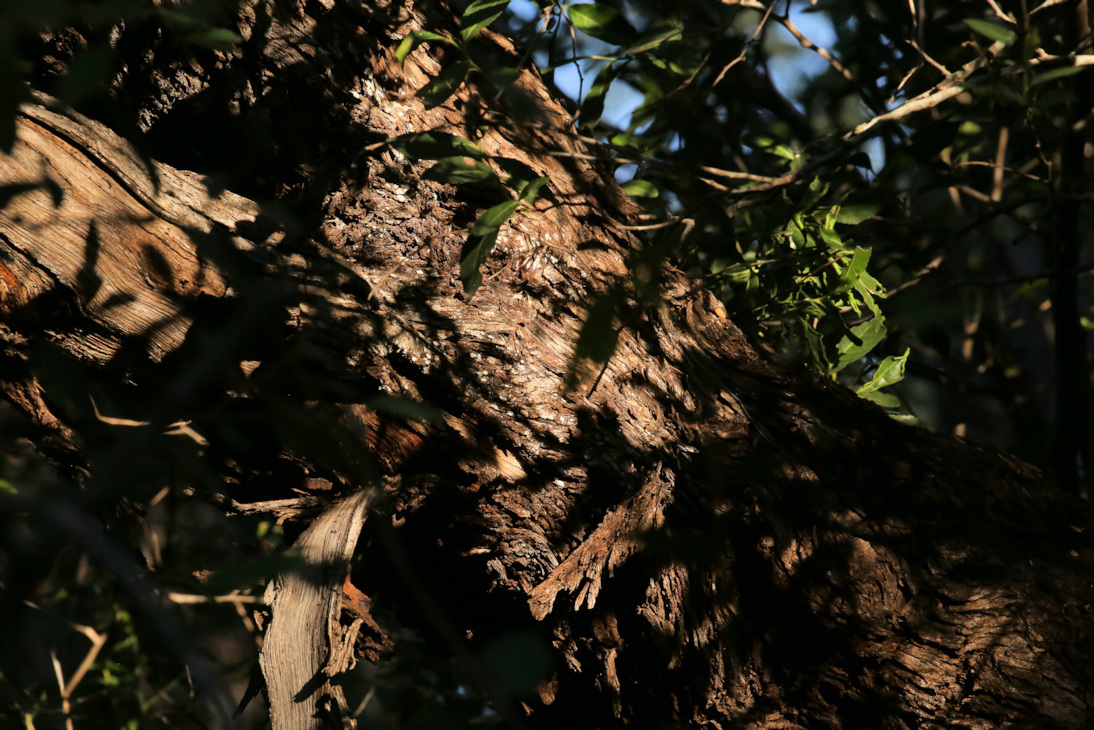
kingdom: Plantae
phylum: Tracheophyta
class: Magnoliopsida
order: Myrtales
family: Combretaceae
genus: Combretum
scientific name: Combretum hereroense
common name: Russet bushwillow
